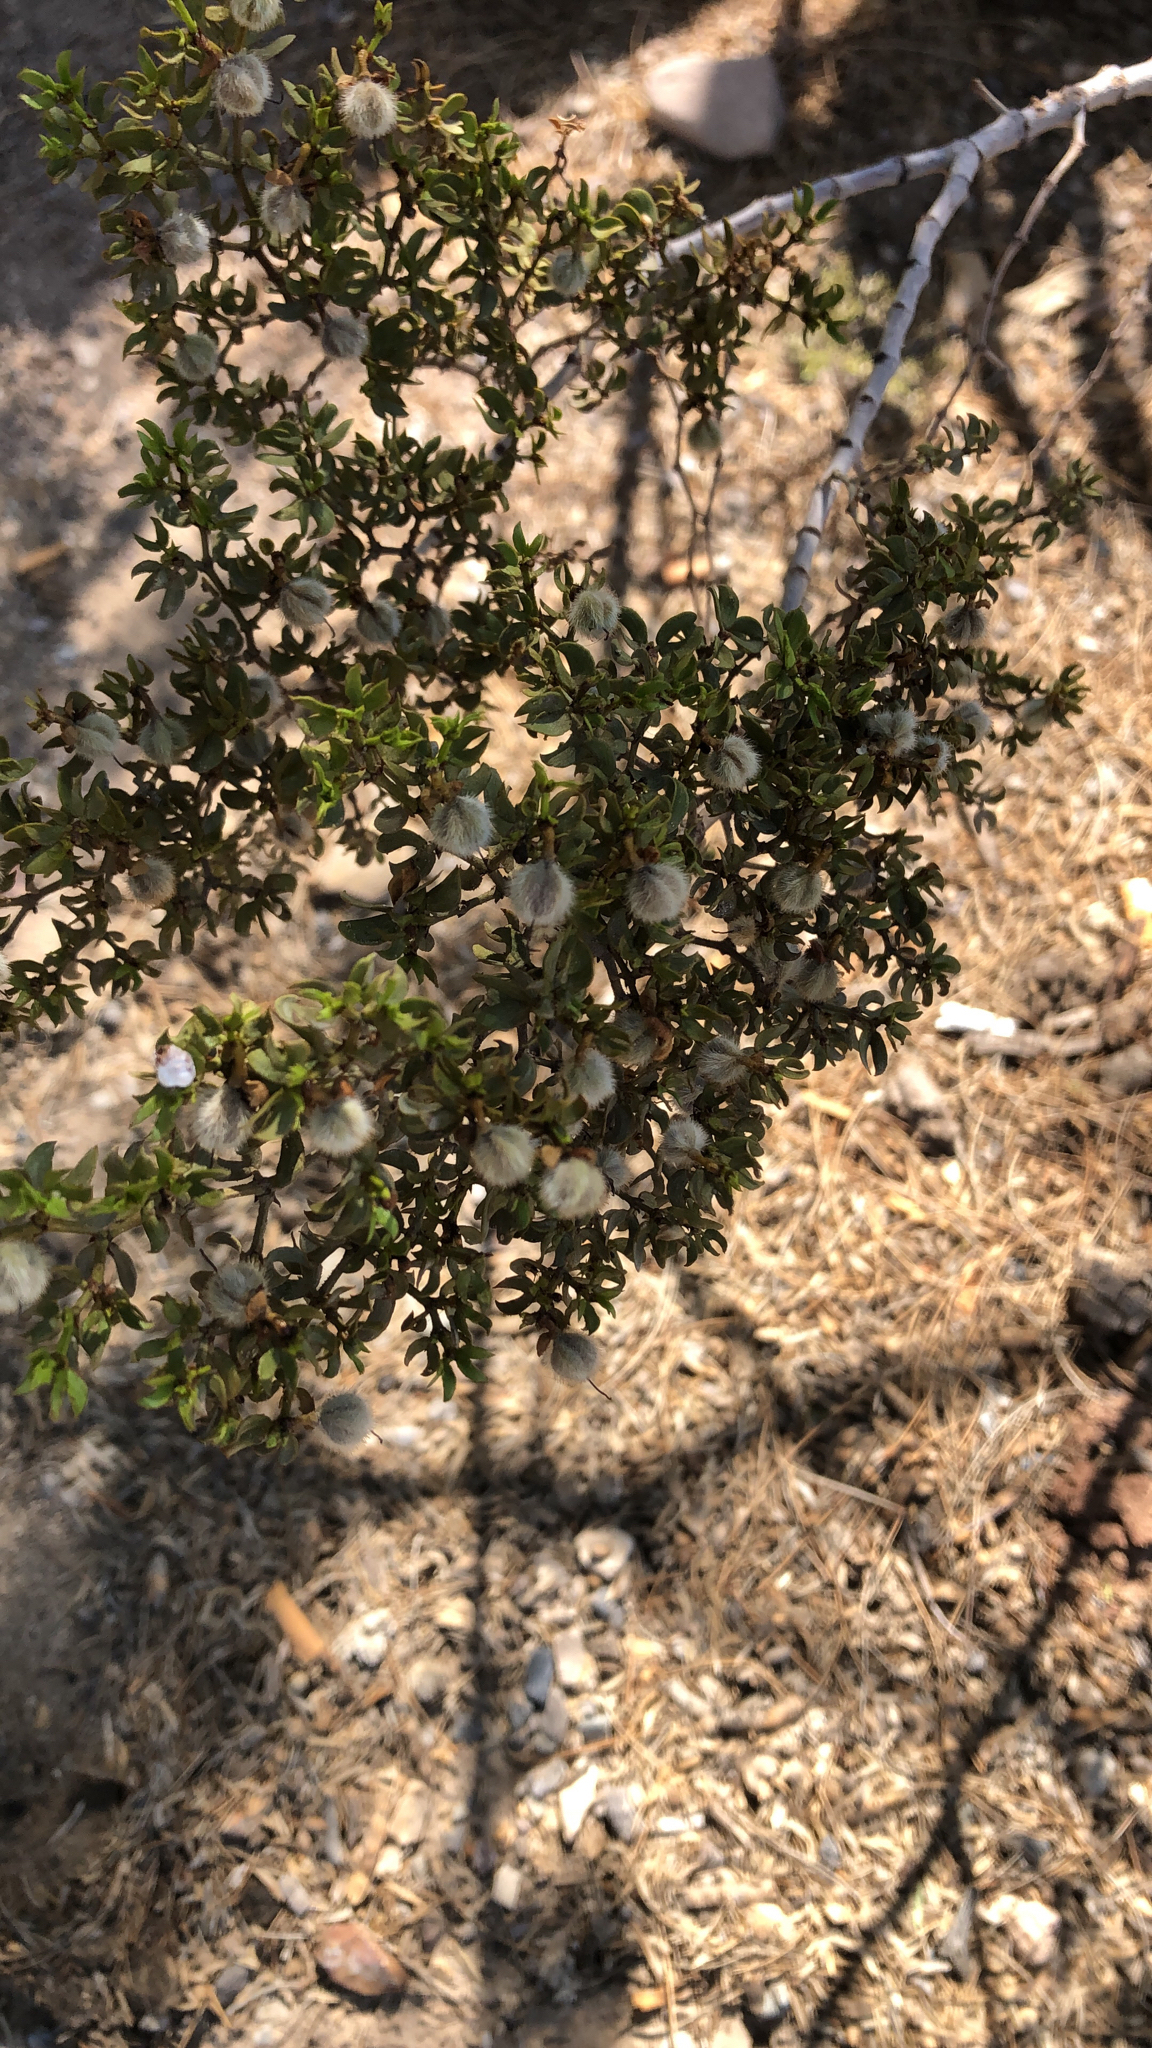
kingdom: Plantae
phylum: Tracheophyta
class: Magnoliopsida
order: Zygophyllales
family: Zygophyllaceae
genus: Larrea
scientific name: Larrea tridentata
